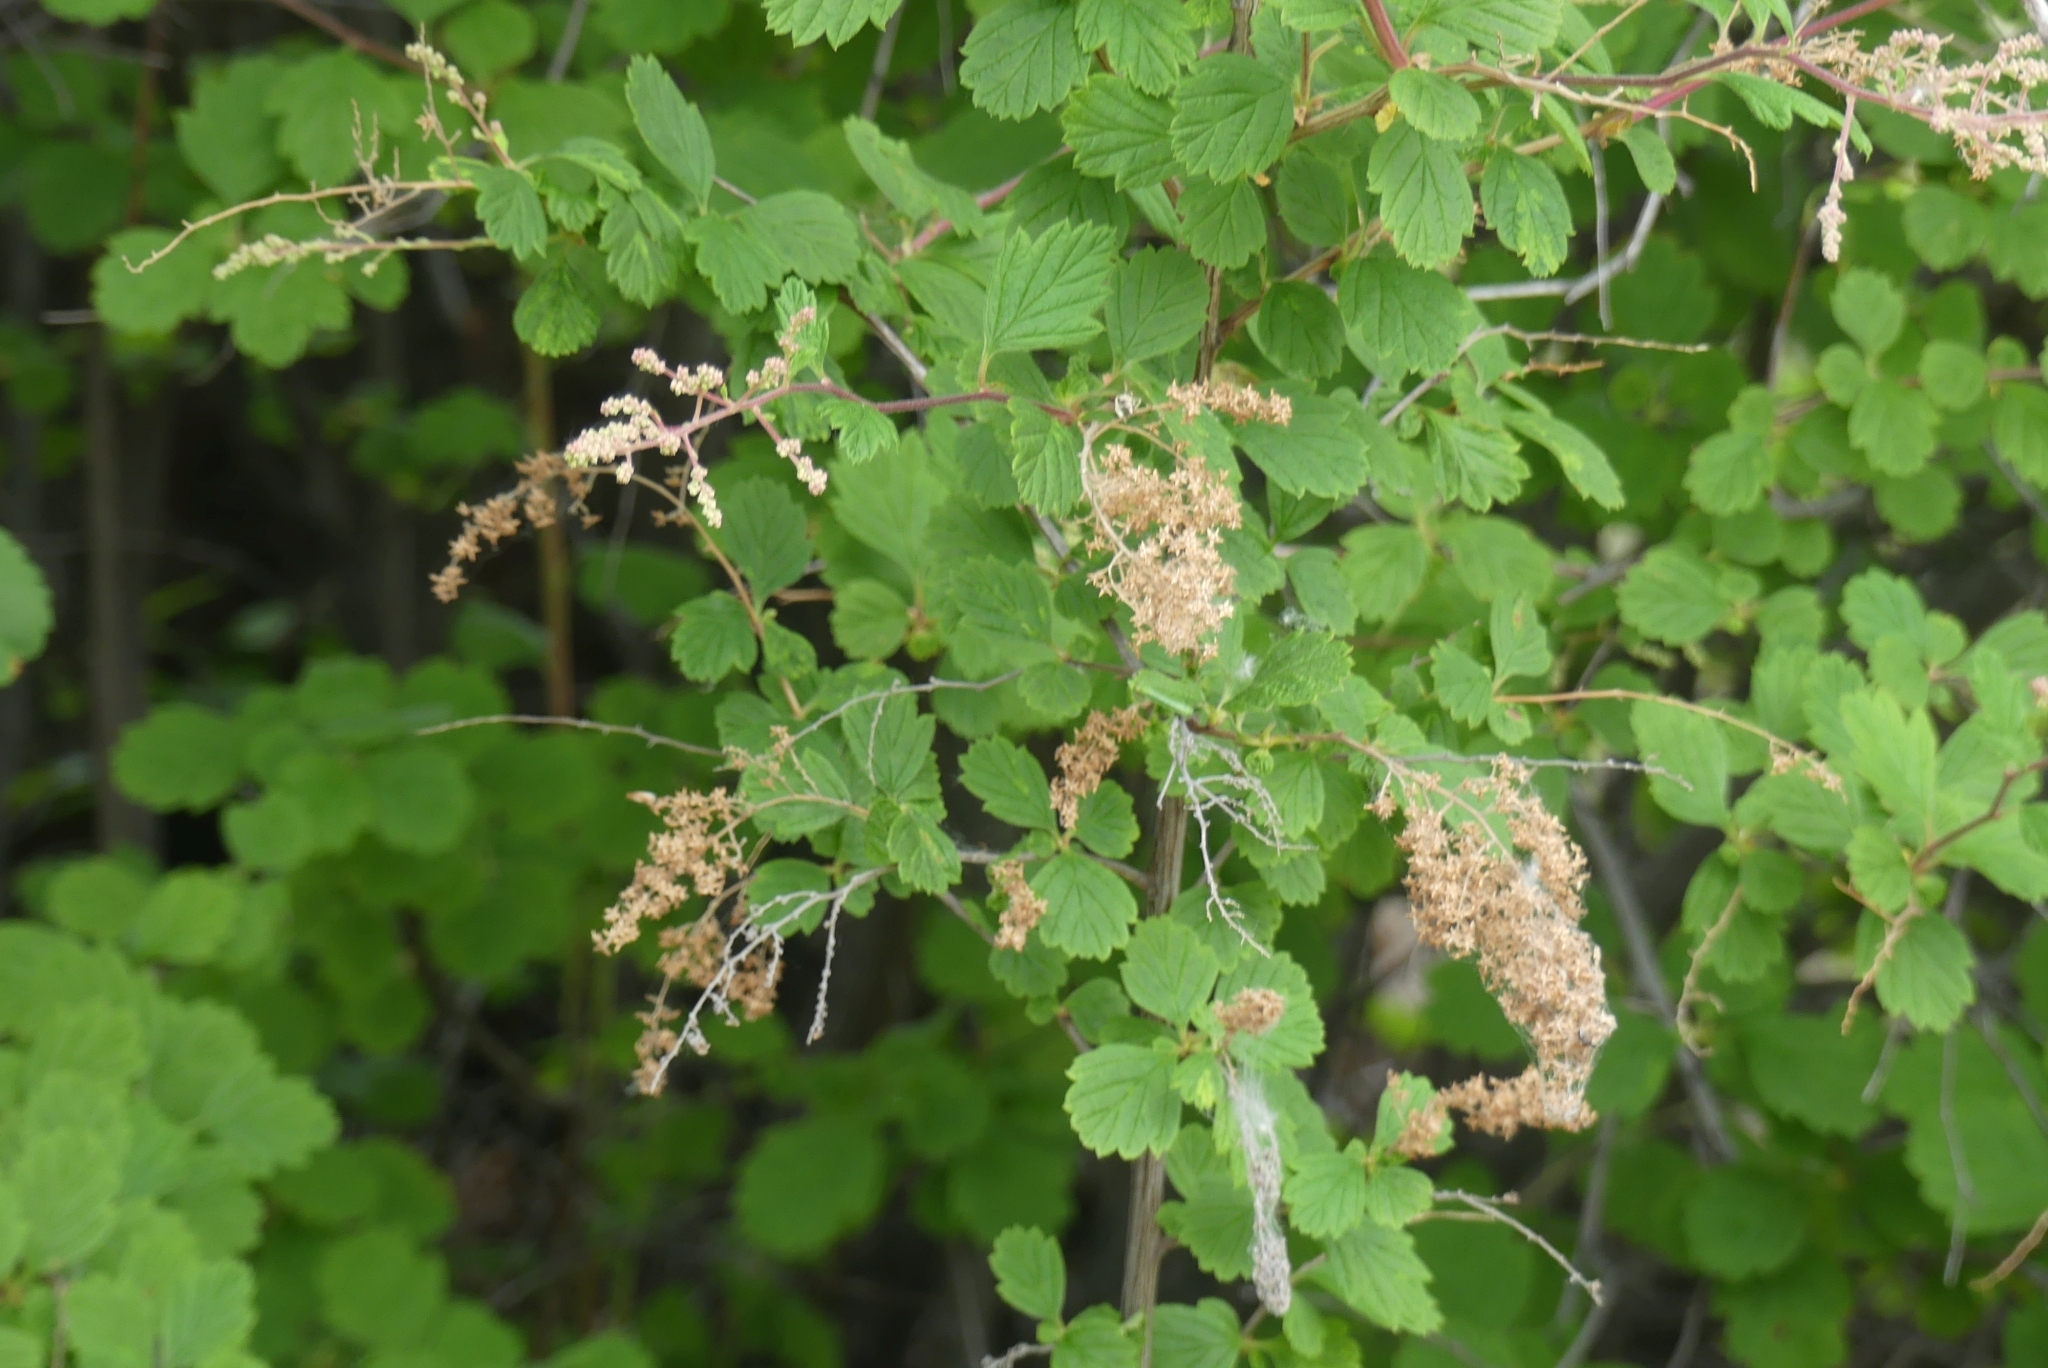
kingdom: Plantae
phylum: Tracheophyta
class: Magnoliopsida
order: Rosales
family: Rosaceae
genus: Holodiscus
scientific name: Holodiscus discolor
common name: Oceanspray
